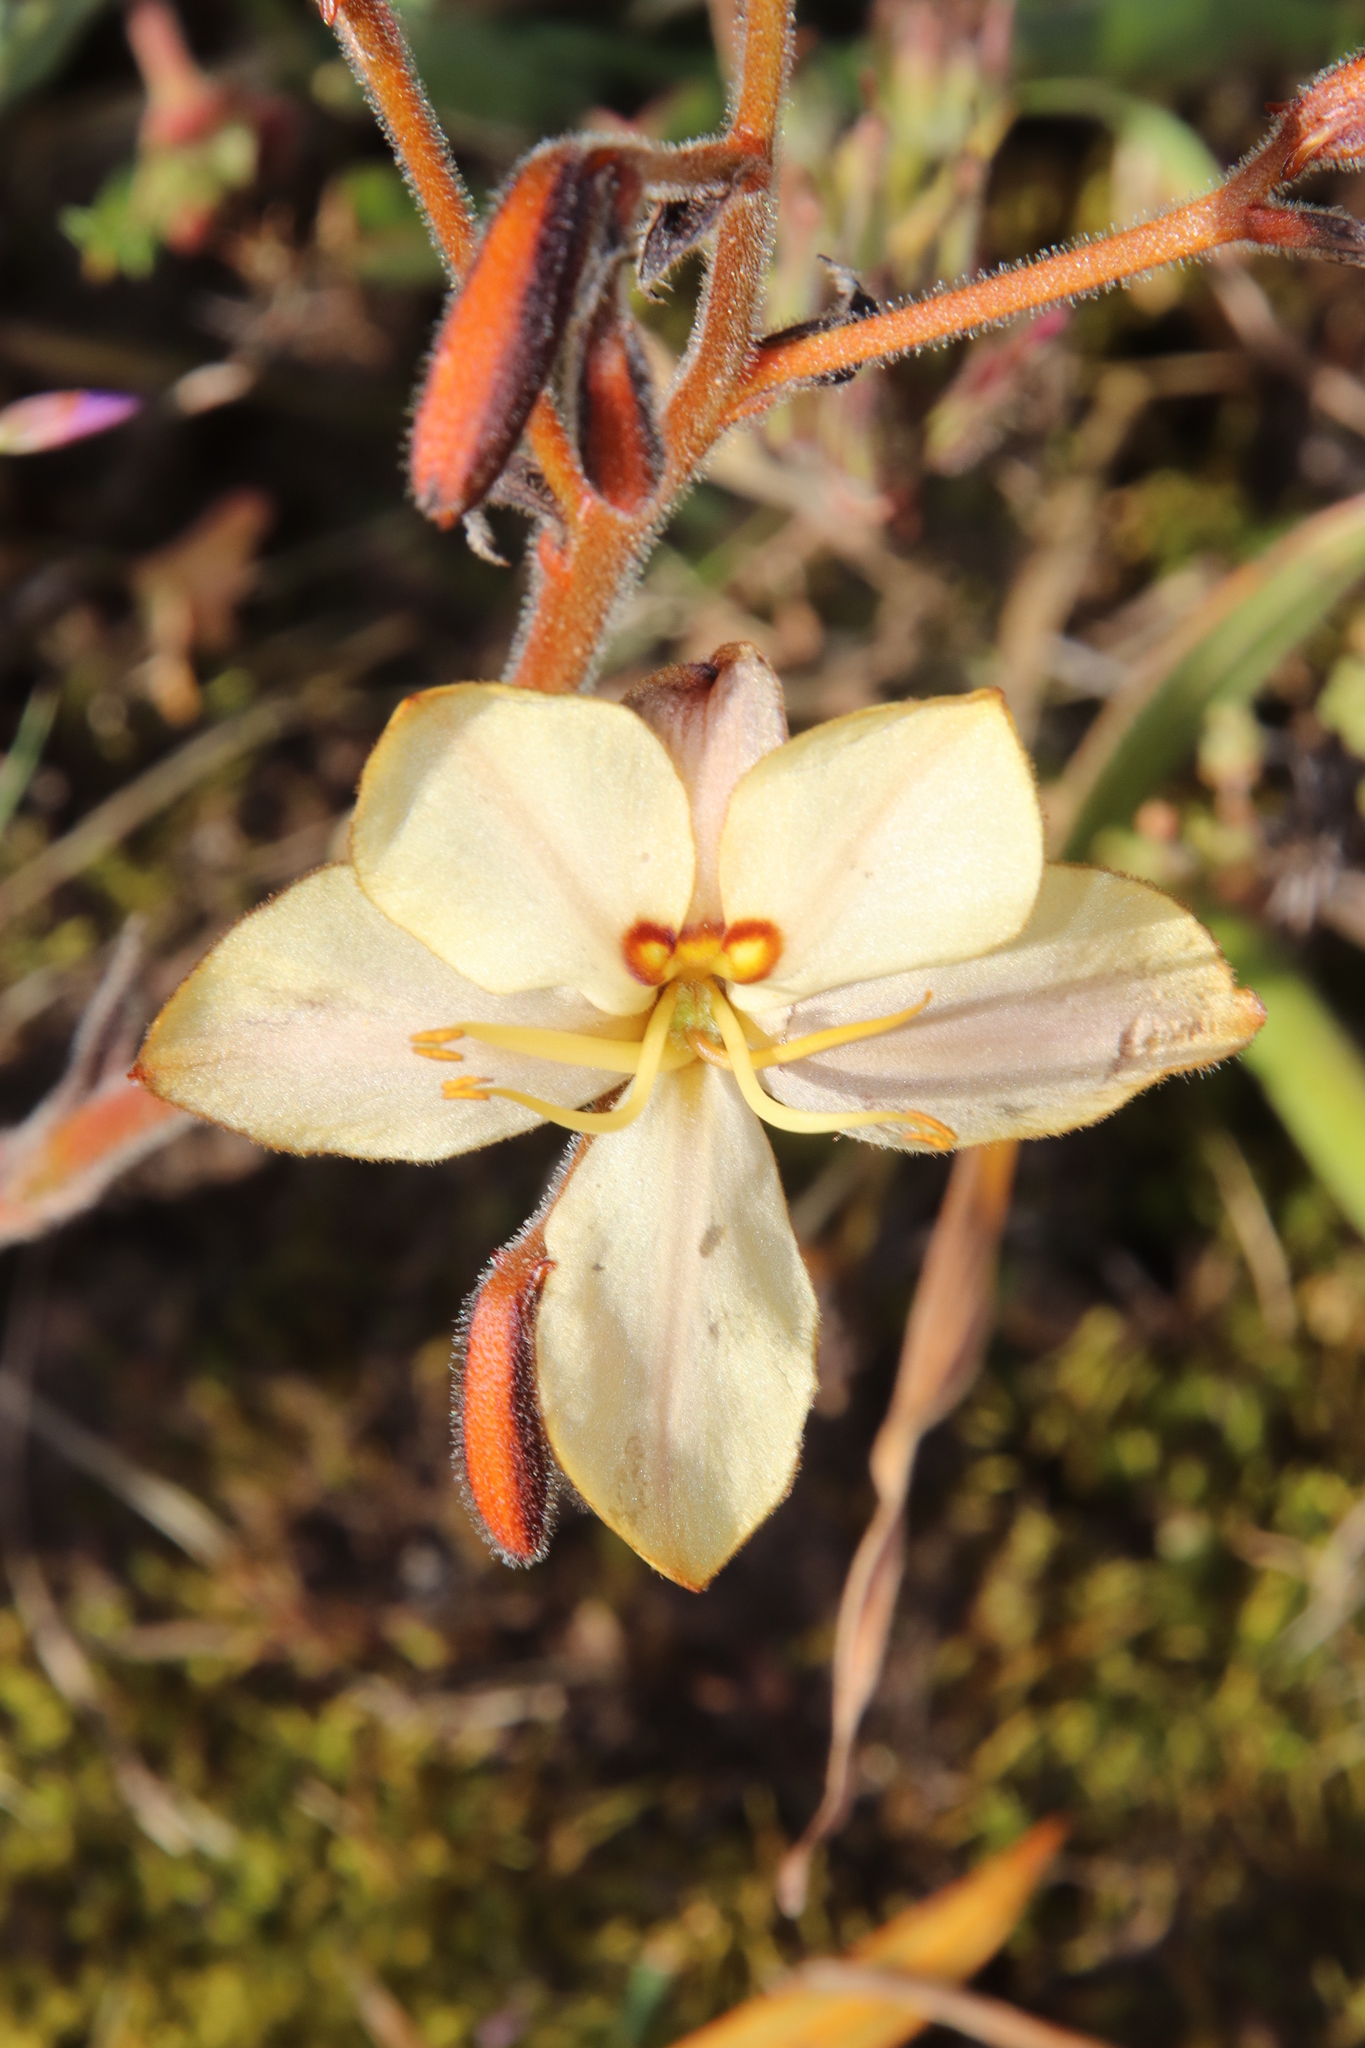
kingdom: Plantae
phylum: Tracheophyta
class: Liliopsida
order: Commelinales
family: Haemodoraceae
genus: Wachendorfia
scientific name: Wachendorfia paniculata
